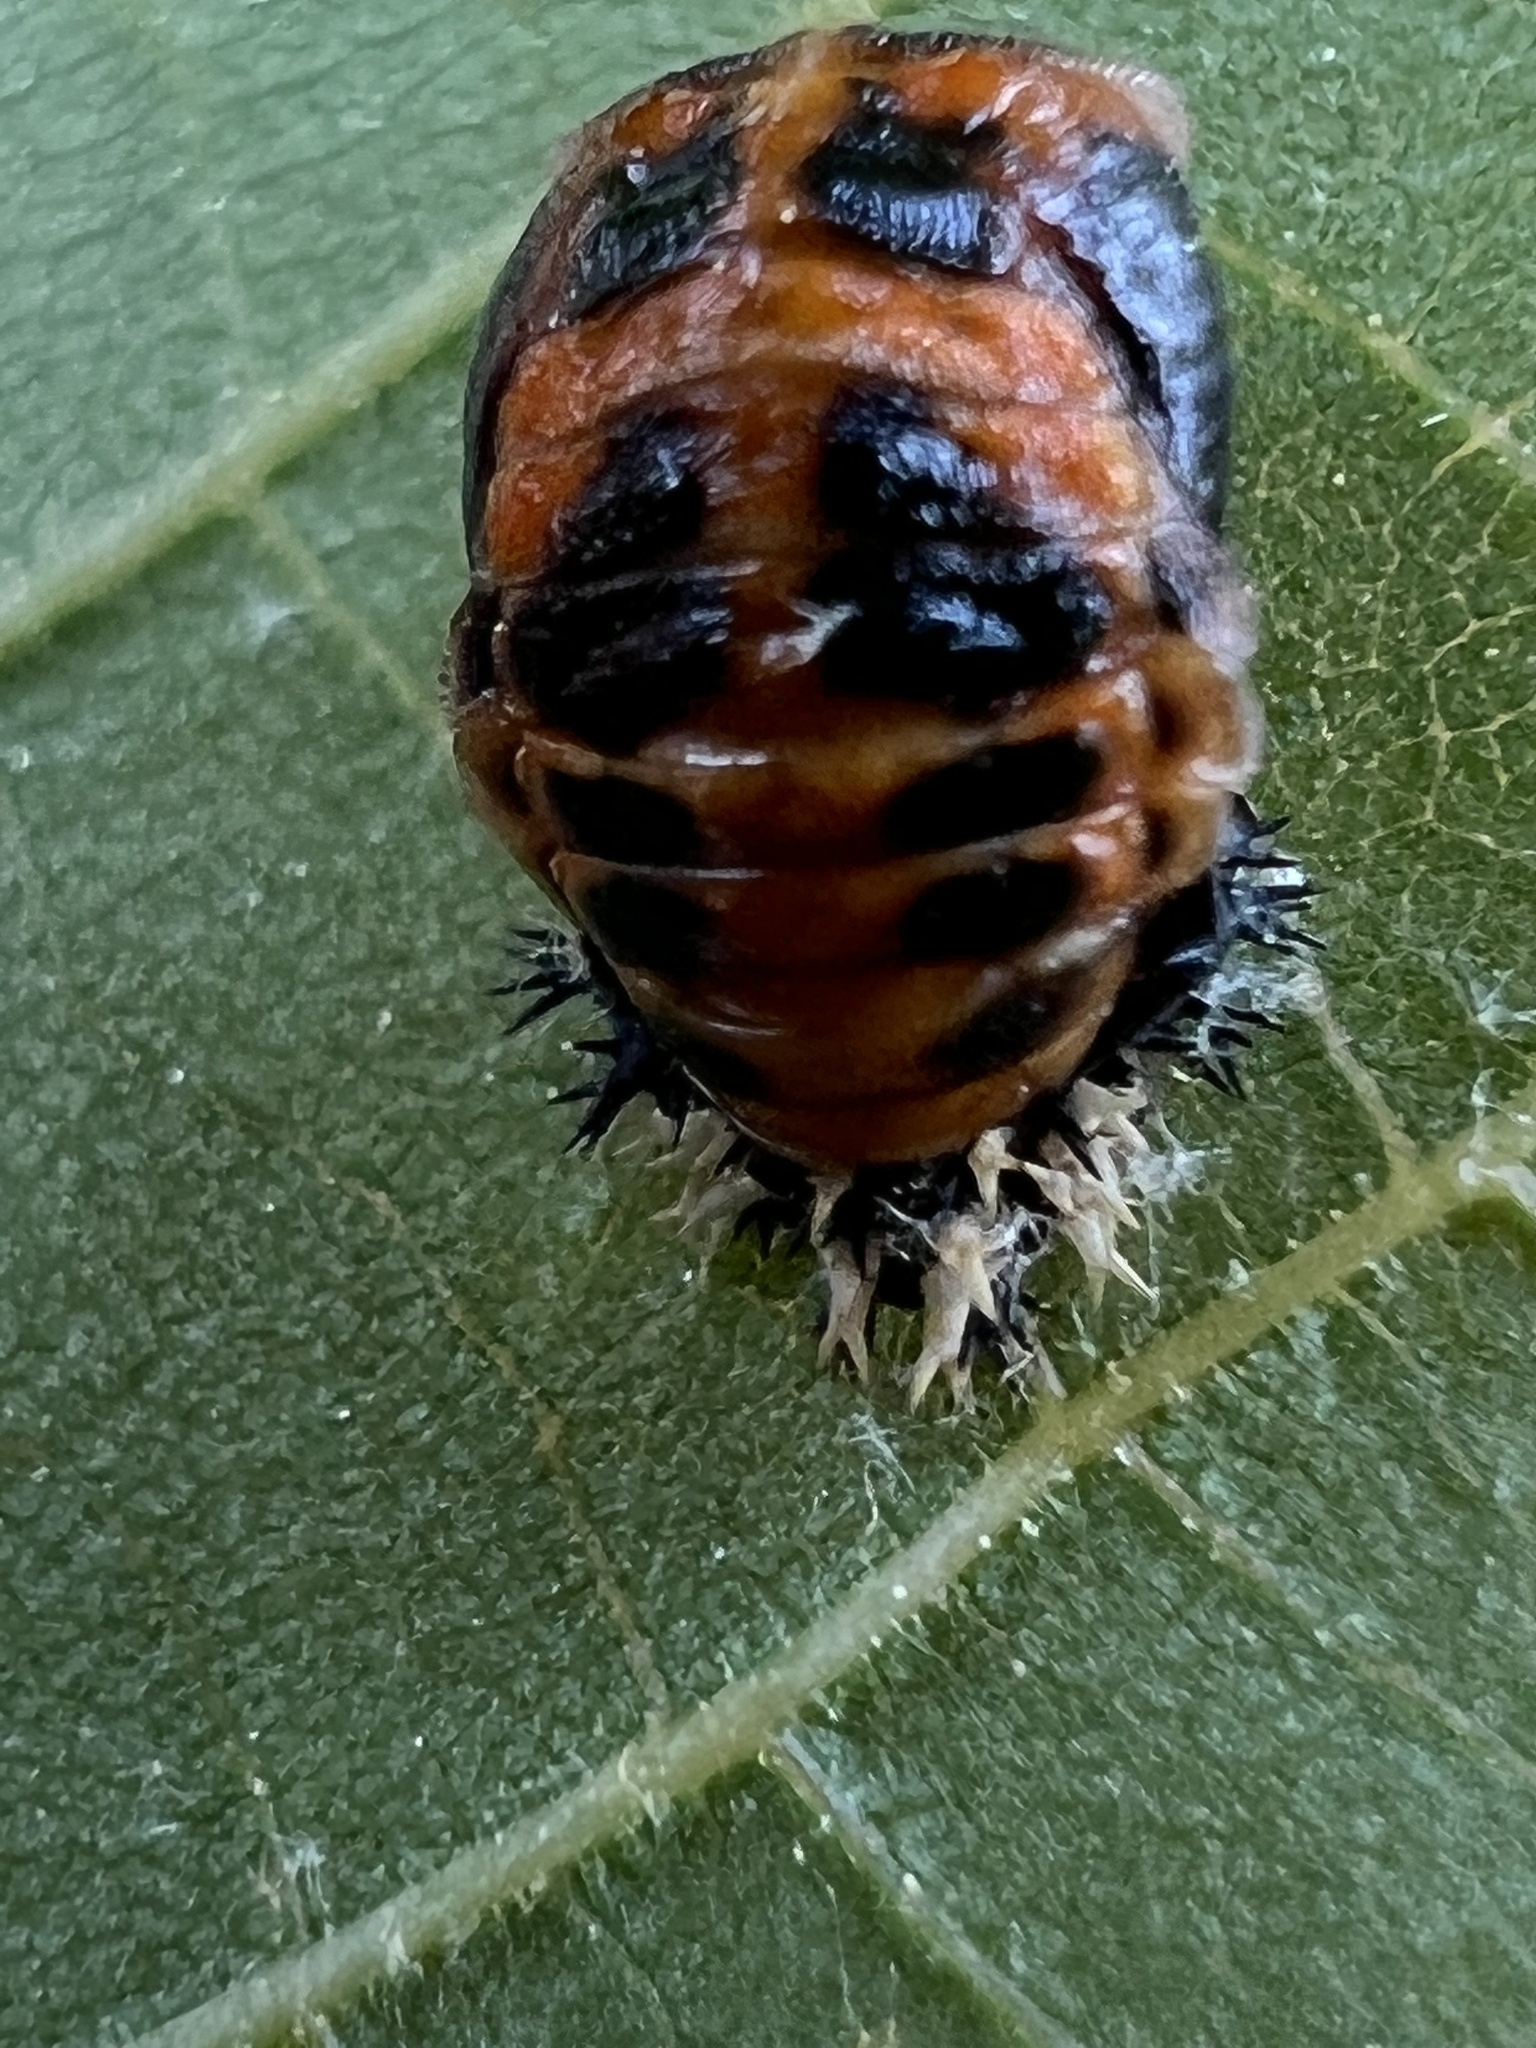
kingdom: Animalia
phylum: Arthropoda
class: Insecta
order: Coleoptera
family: Coccinellidae
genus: Harmonia
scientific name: Harmonia axyridis
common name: Harlequin ladybird
